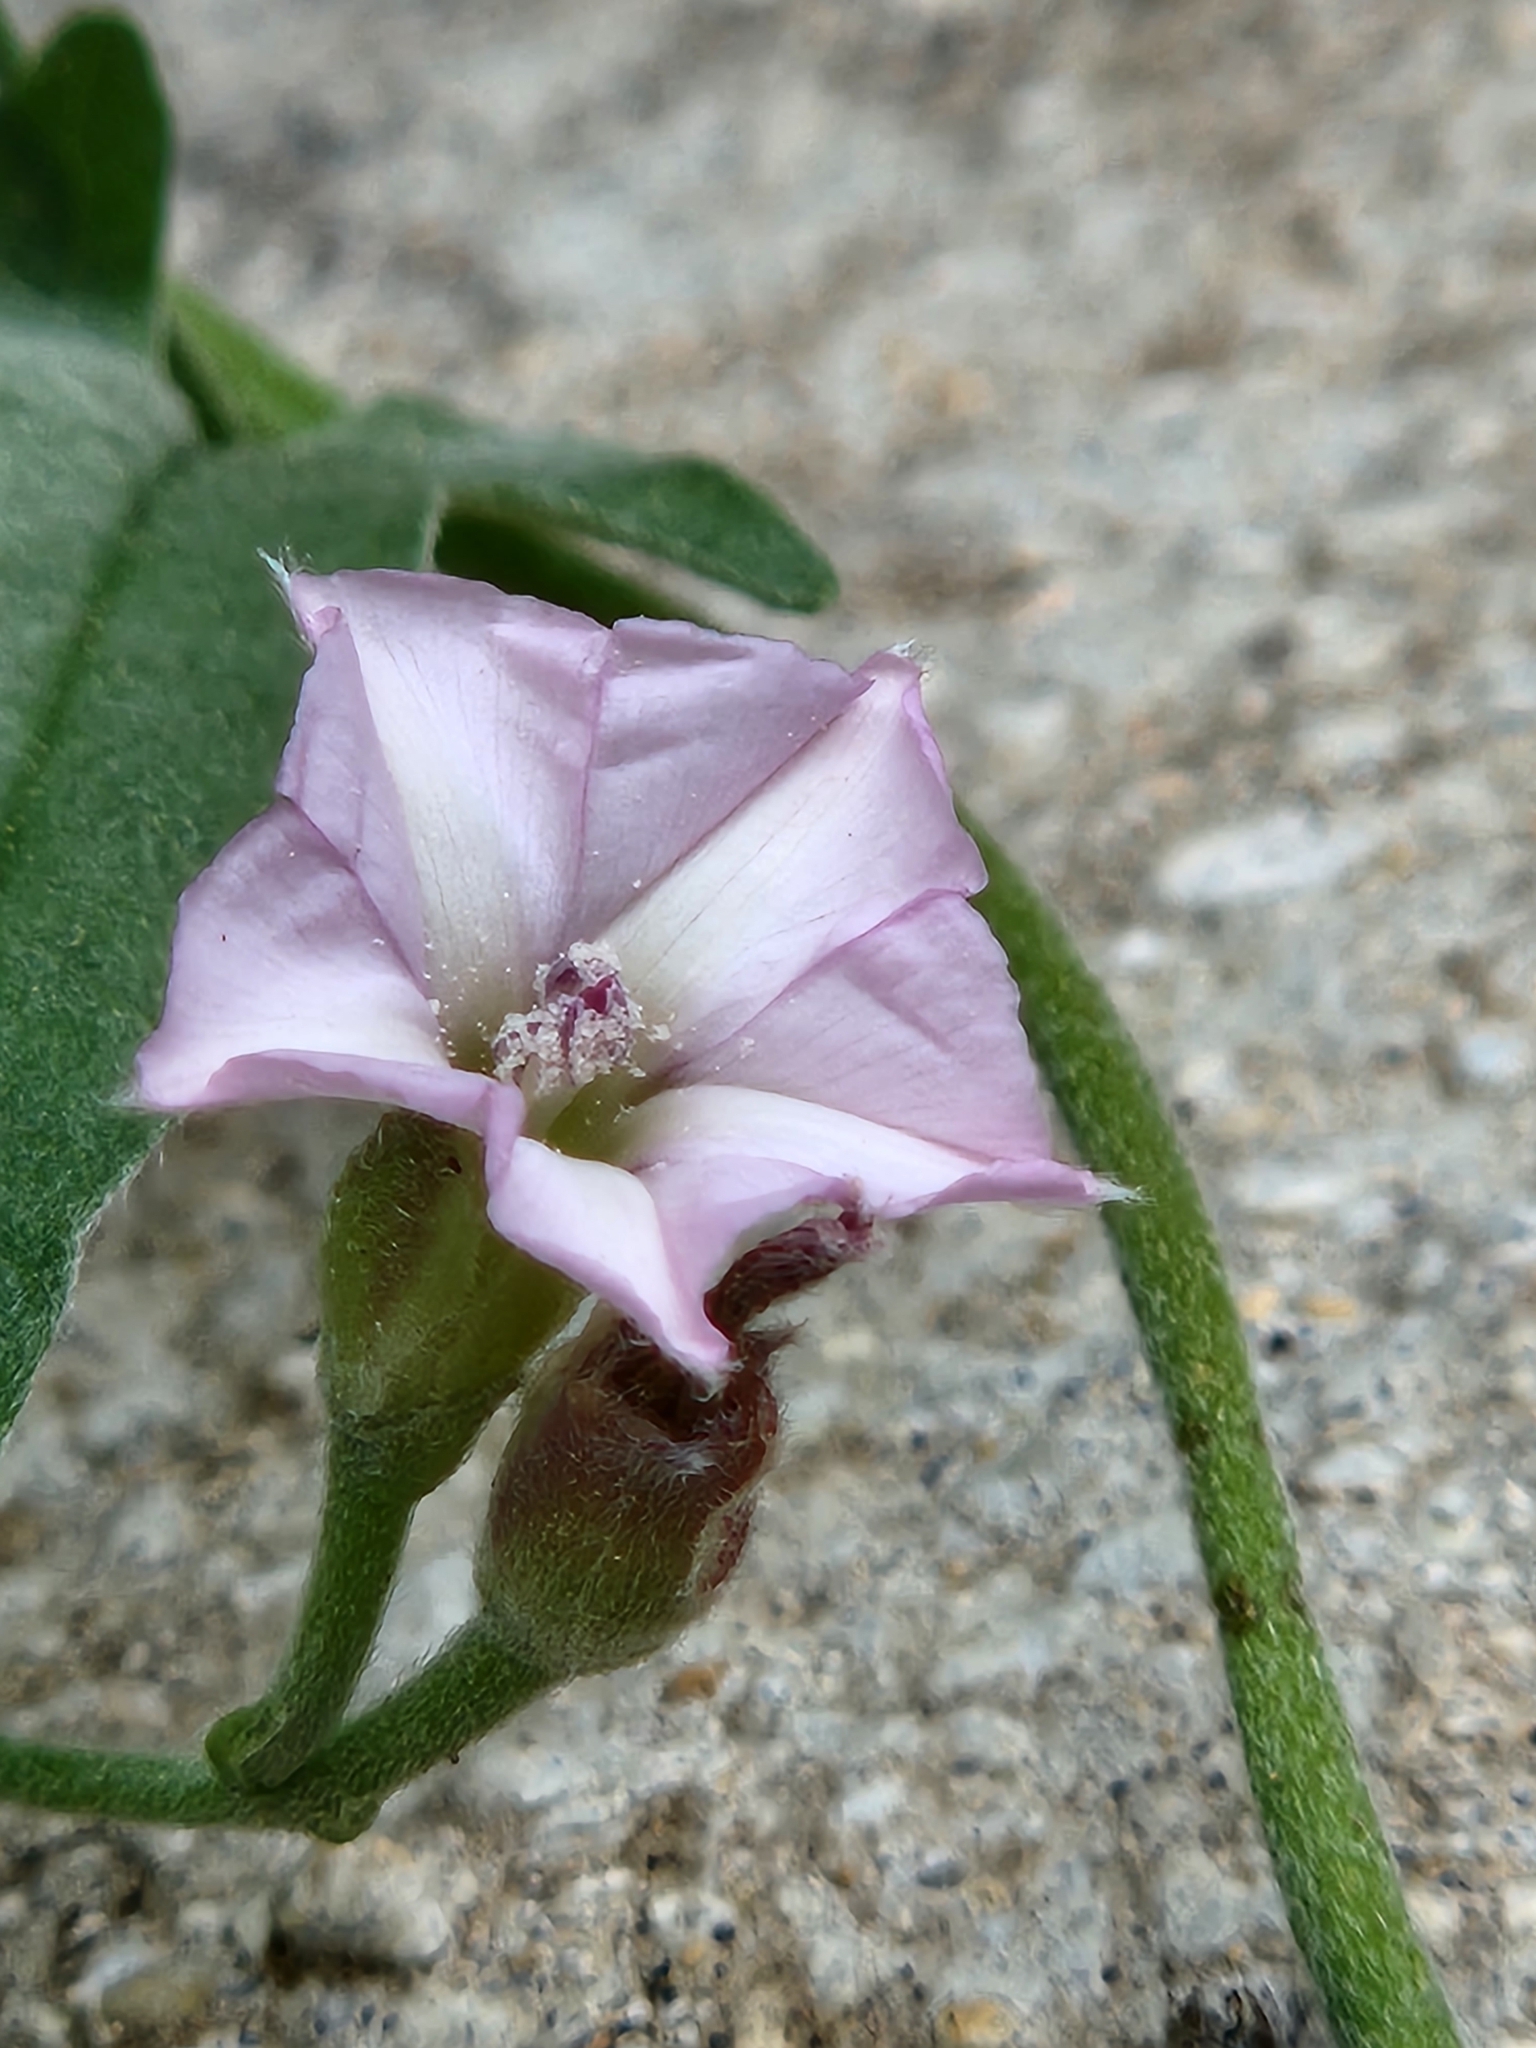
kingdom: Plantae
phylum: Tracheophyta
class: Magnoliopsida
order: Solanales
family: Convolvulaceae
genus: Convolvulus
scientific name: Convolvulus equitans
